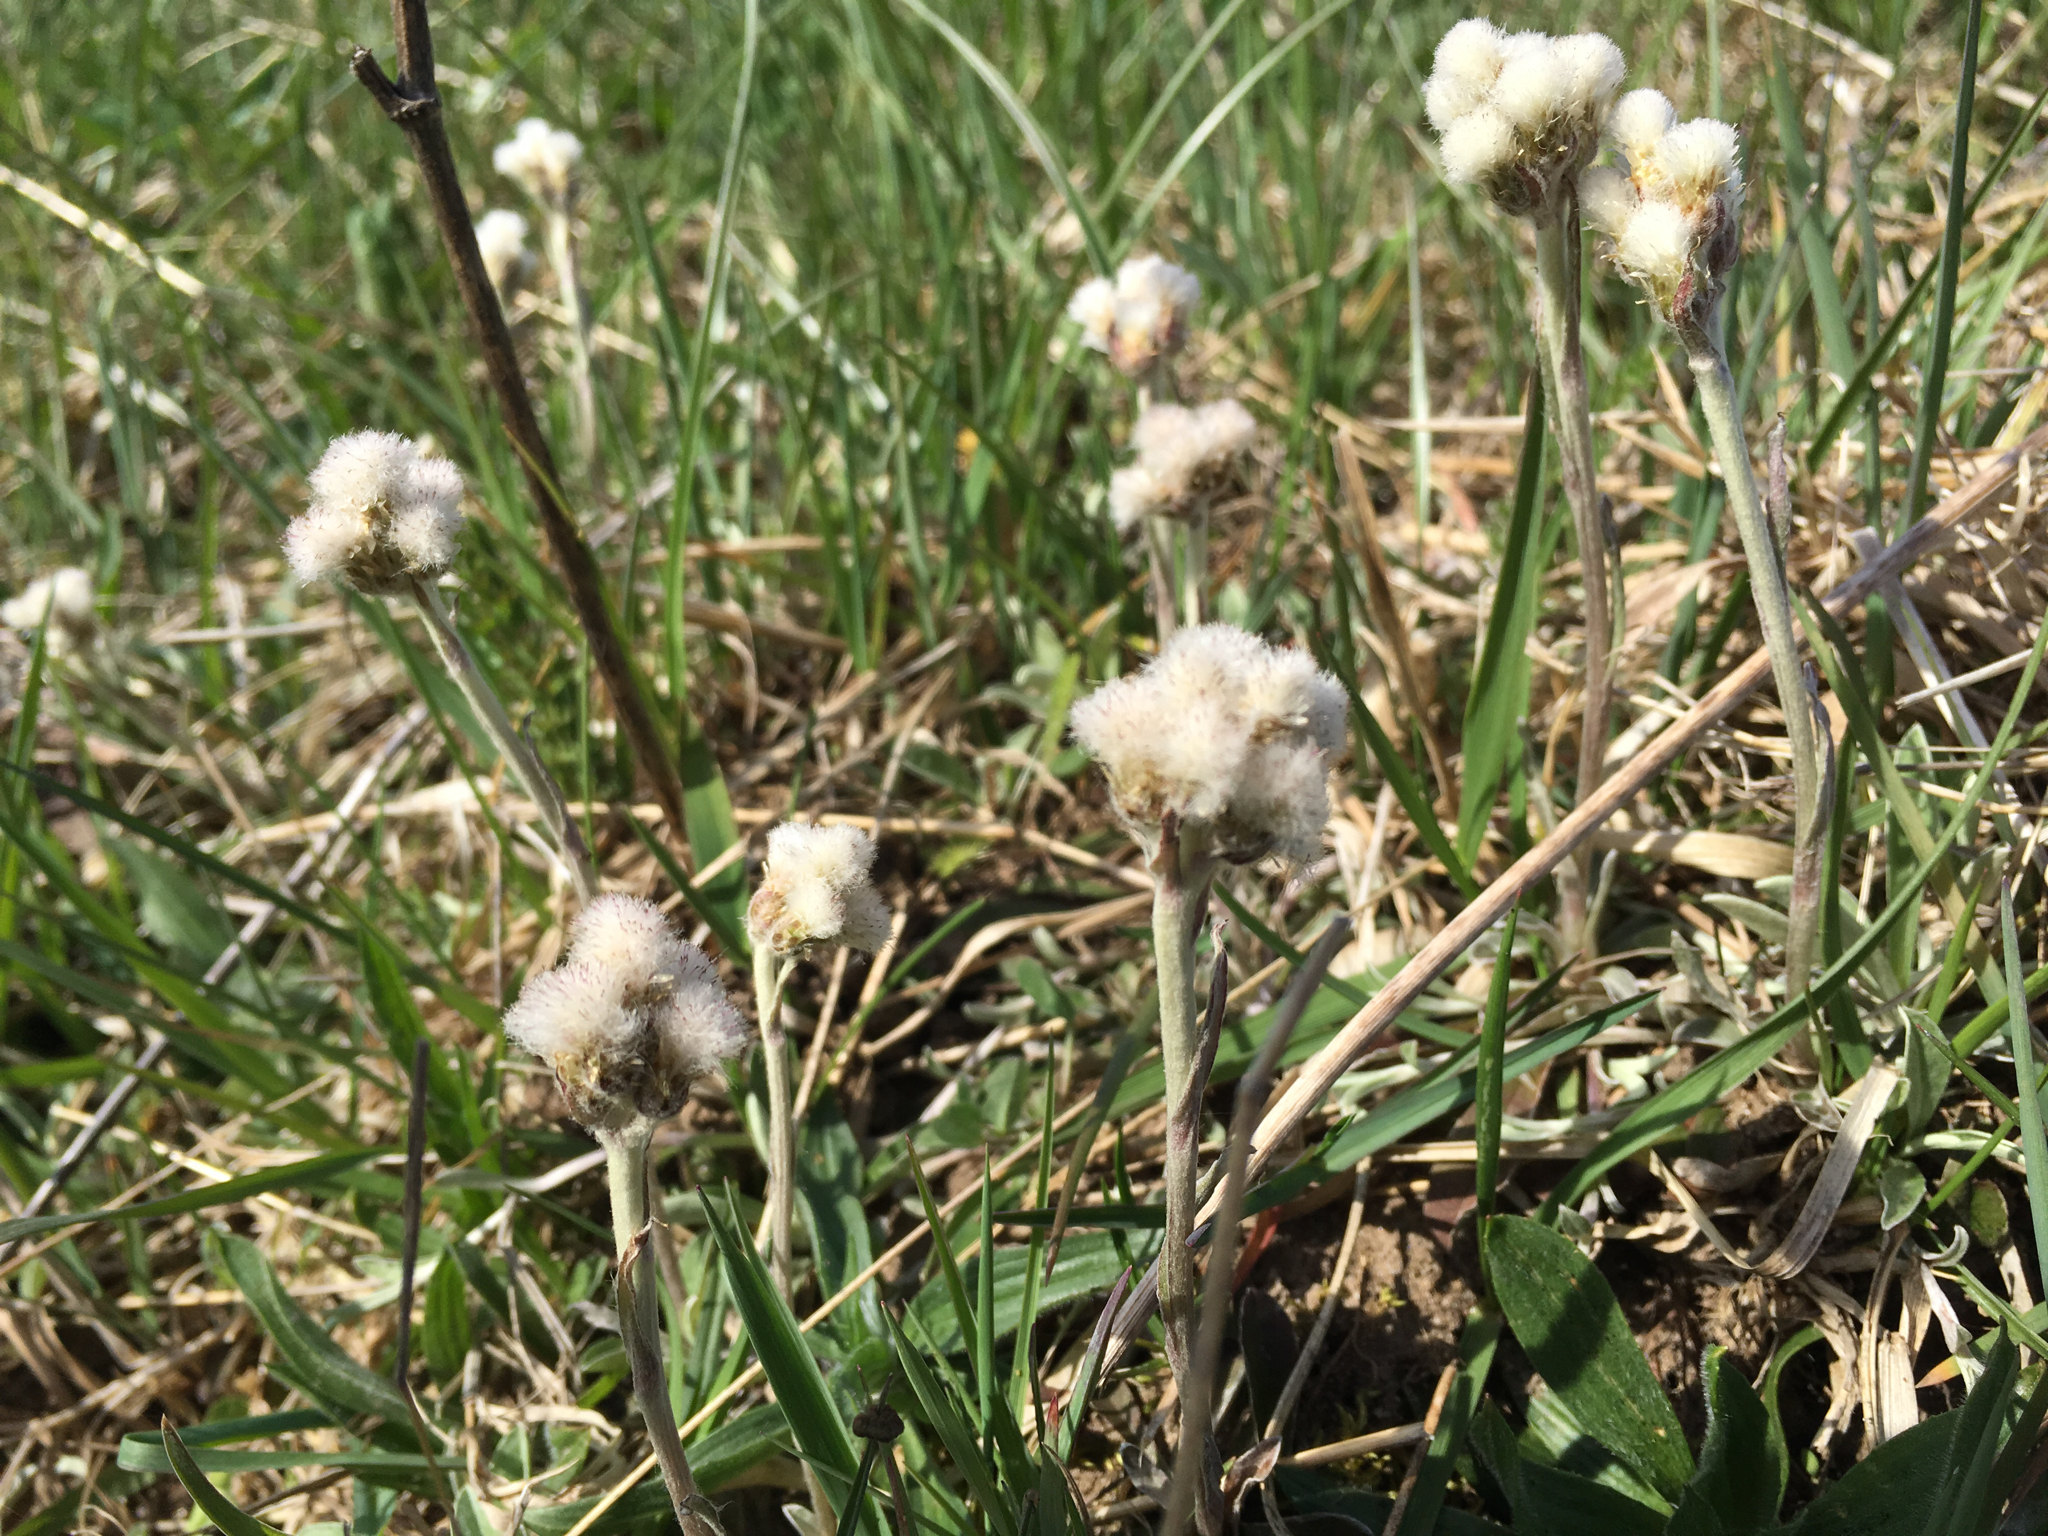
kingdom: Plantae
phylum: Tracheophyta
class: Magnoliopsida
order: Asterales
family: Asteraceae
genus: Antennaria
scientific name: Antennaria plantaginifolia
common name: Plantain-leaved pussytoes
